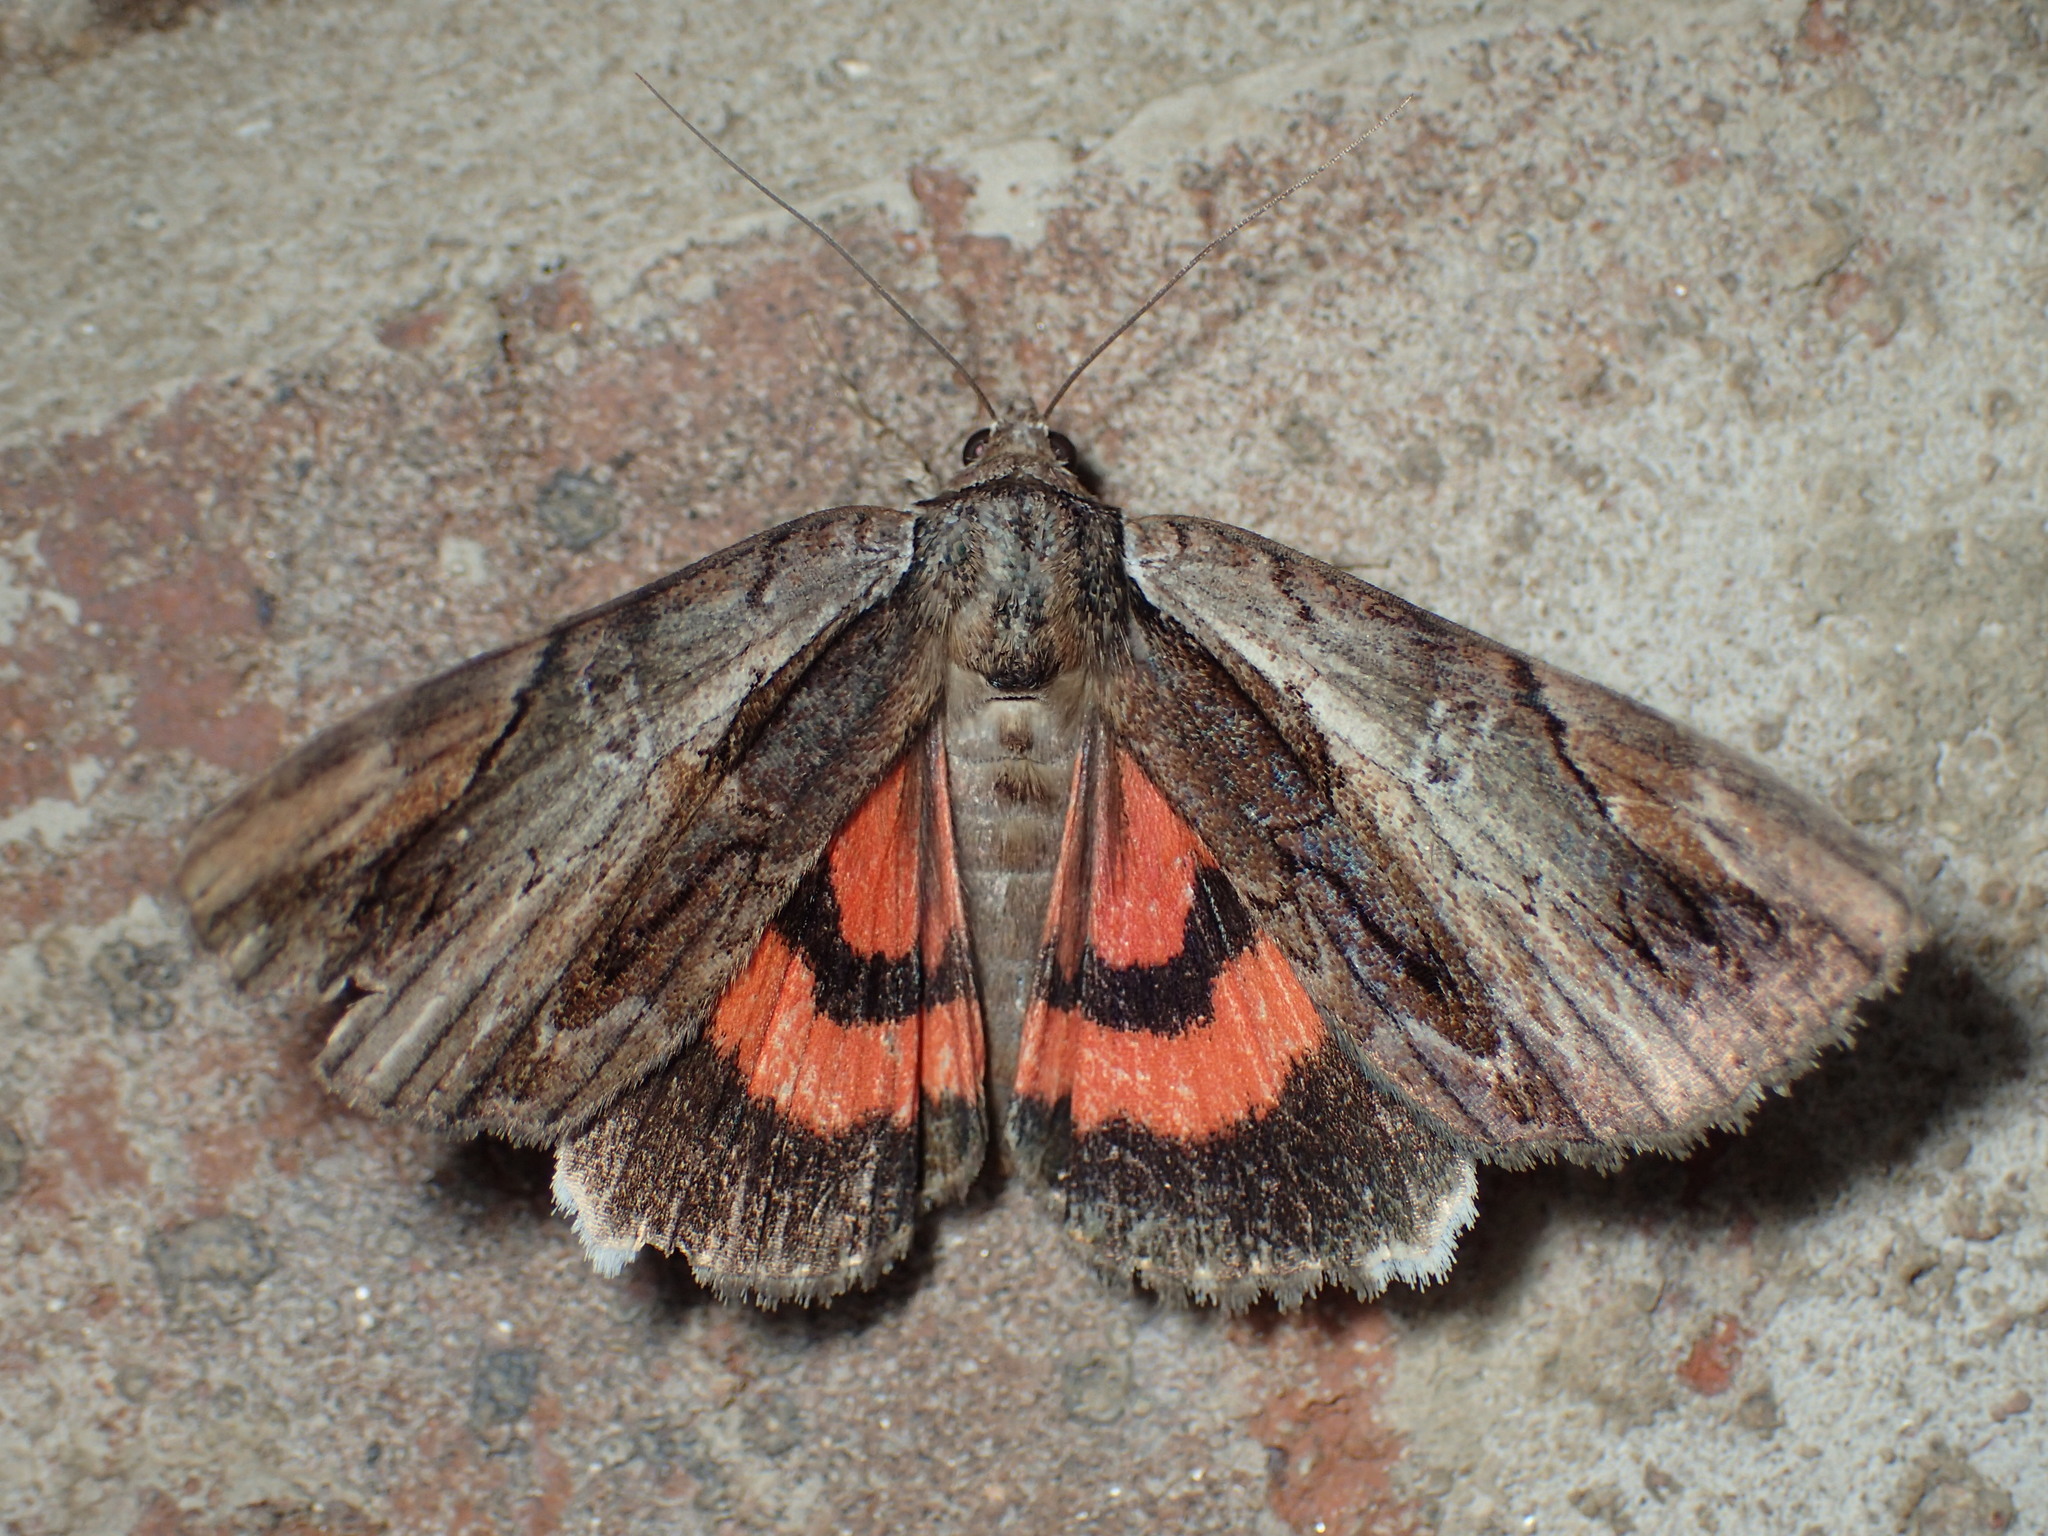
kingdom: Animalia
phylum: Arthropoda
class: Insecta
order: Lepidoptera
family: Erebidae
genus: Catocala
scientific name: Catocala ultronia
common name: Ultronia underwing
